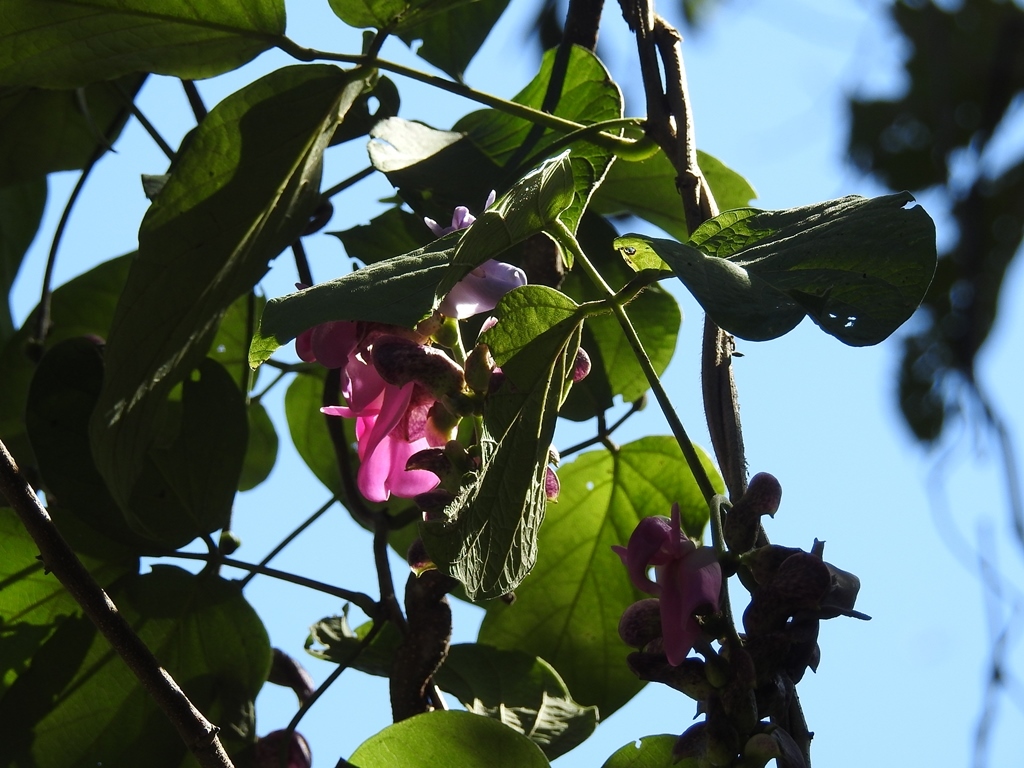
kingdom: Plantae
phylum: Tracheophyta
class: Magnoliopsida
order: Fabales
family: Fabaceae
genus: Canavalia
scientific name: Canavalia oxyphylla
